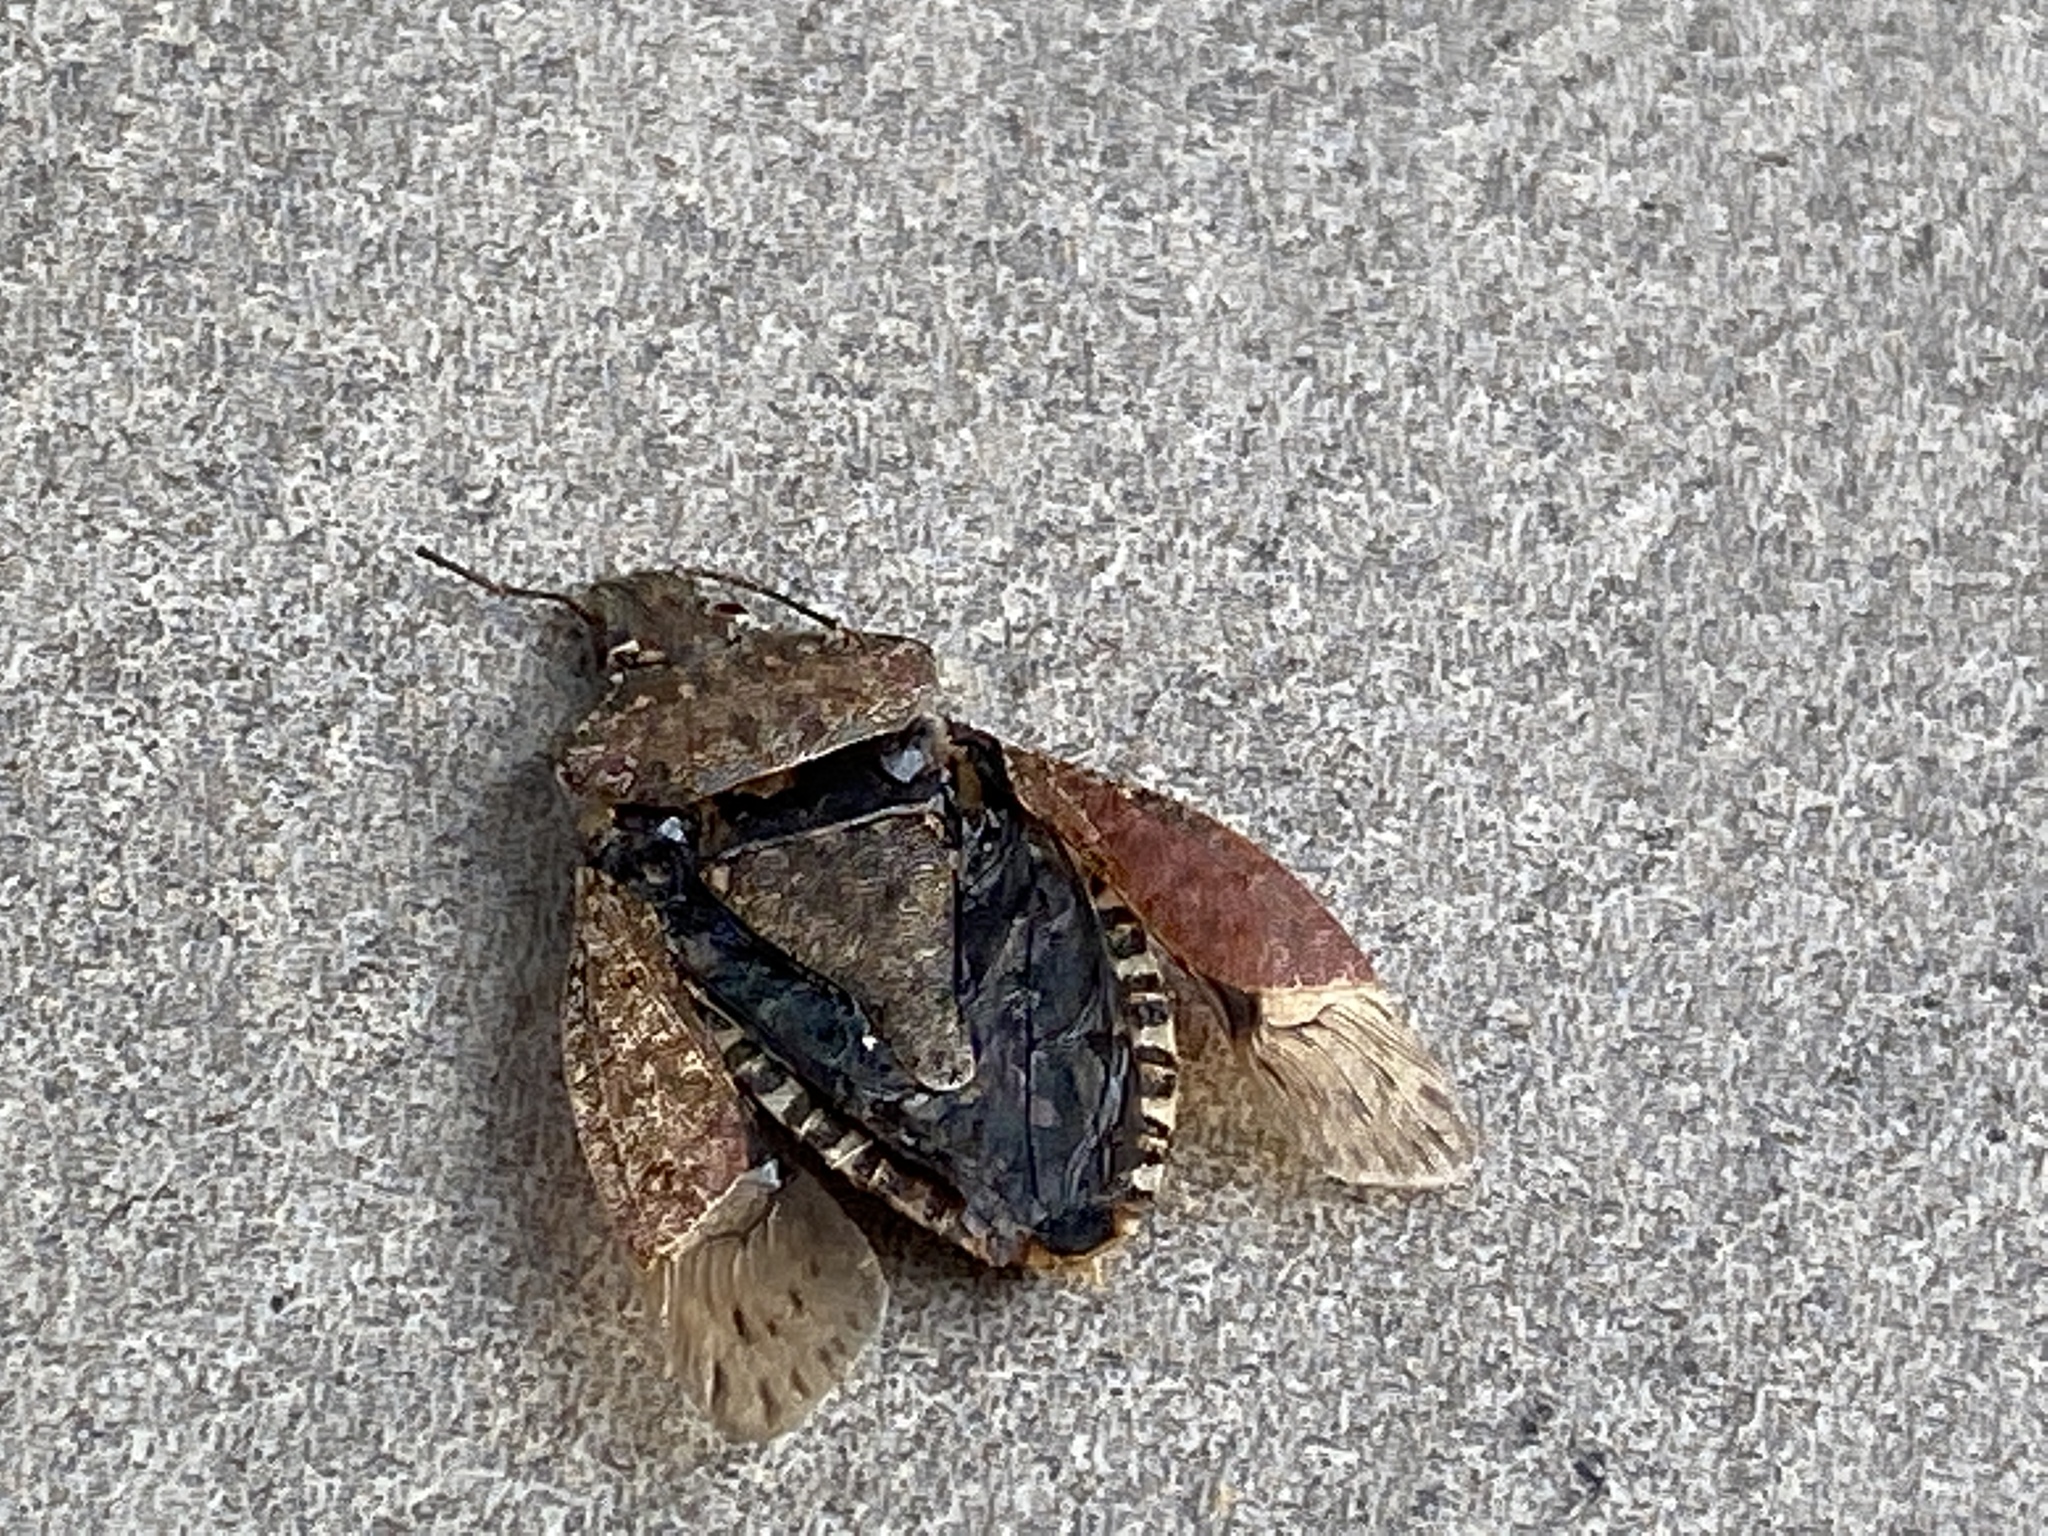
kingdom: Animalia
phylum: Arthropoda
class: Insecta
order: Hemiptera
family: Pentatomidae
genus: Halyomorpha
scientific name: Halyomorpha halys
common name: Brown marmorated stink bug
